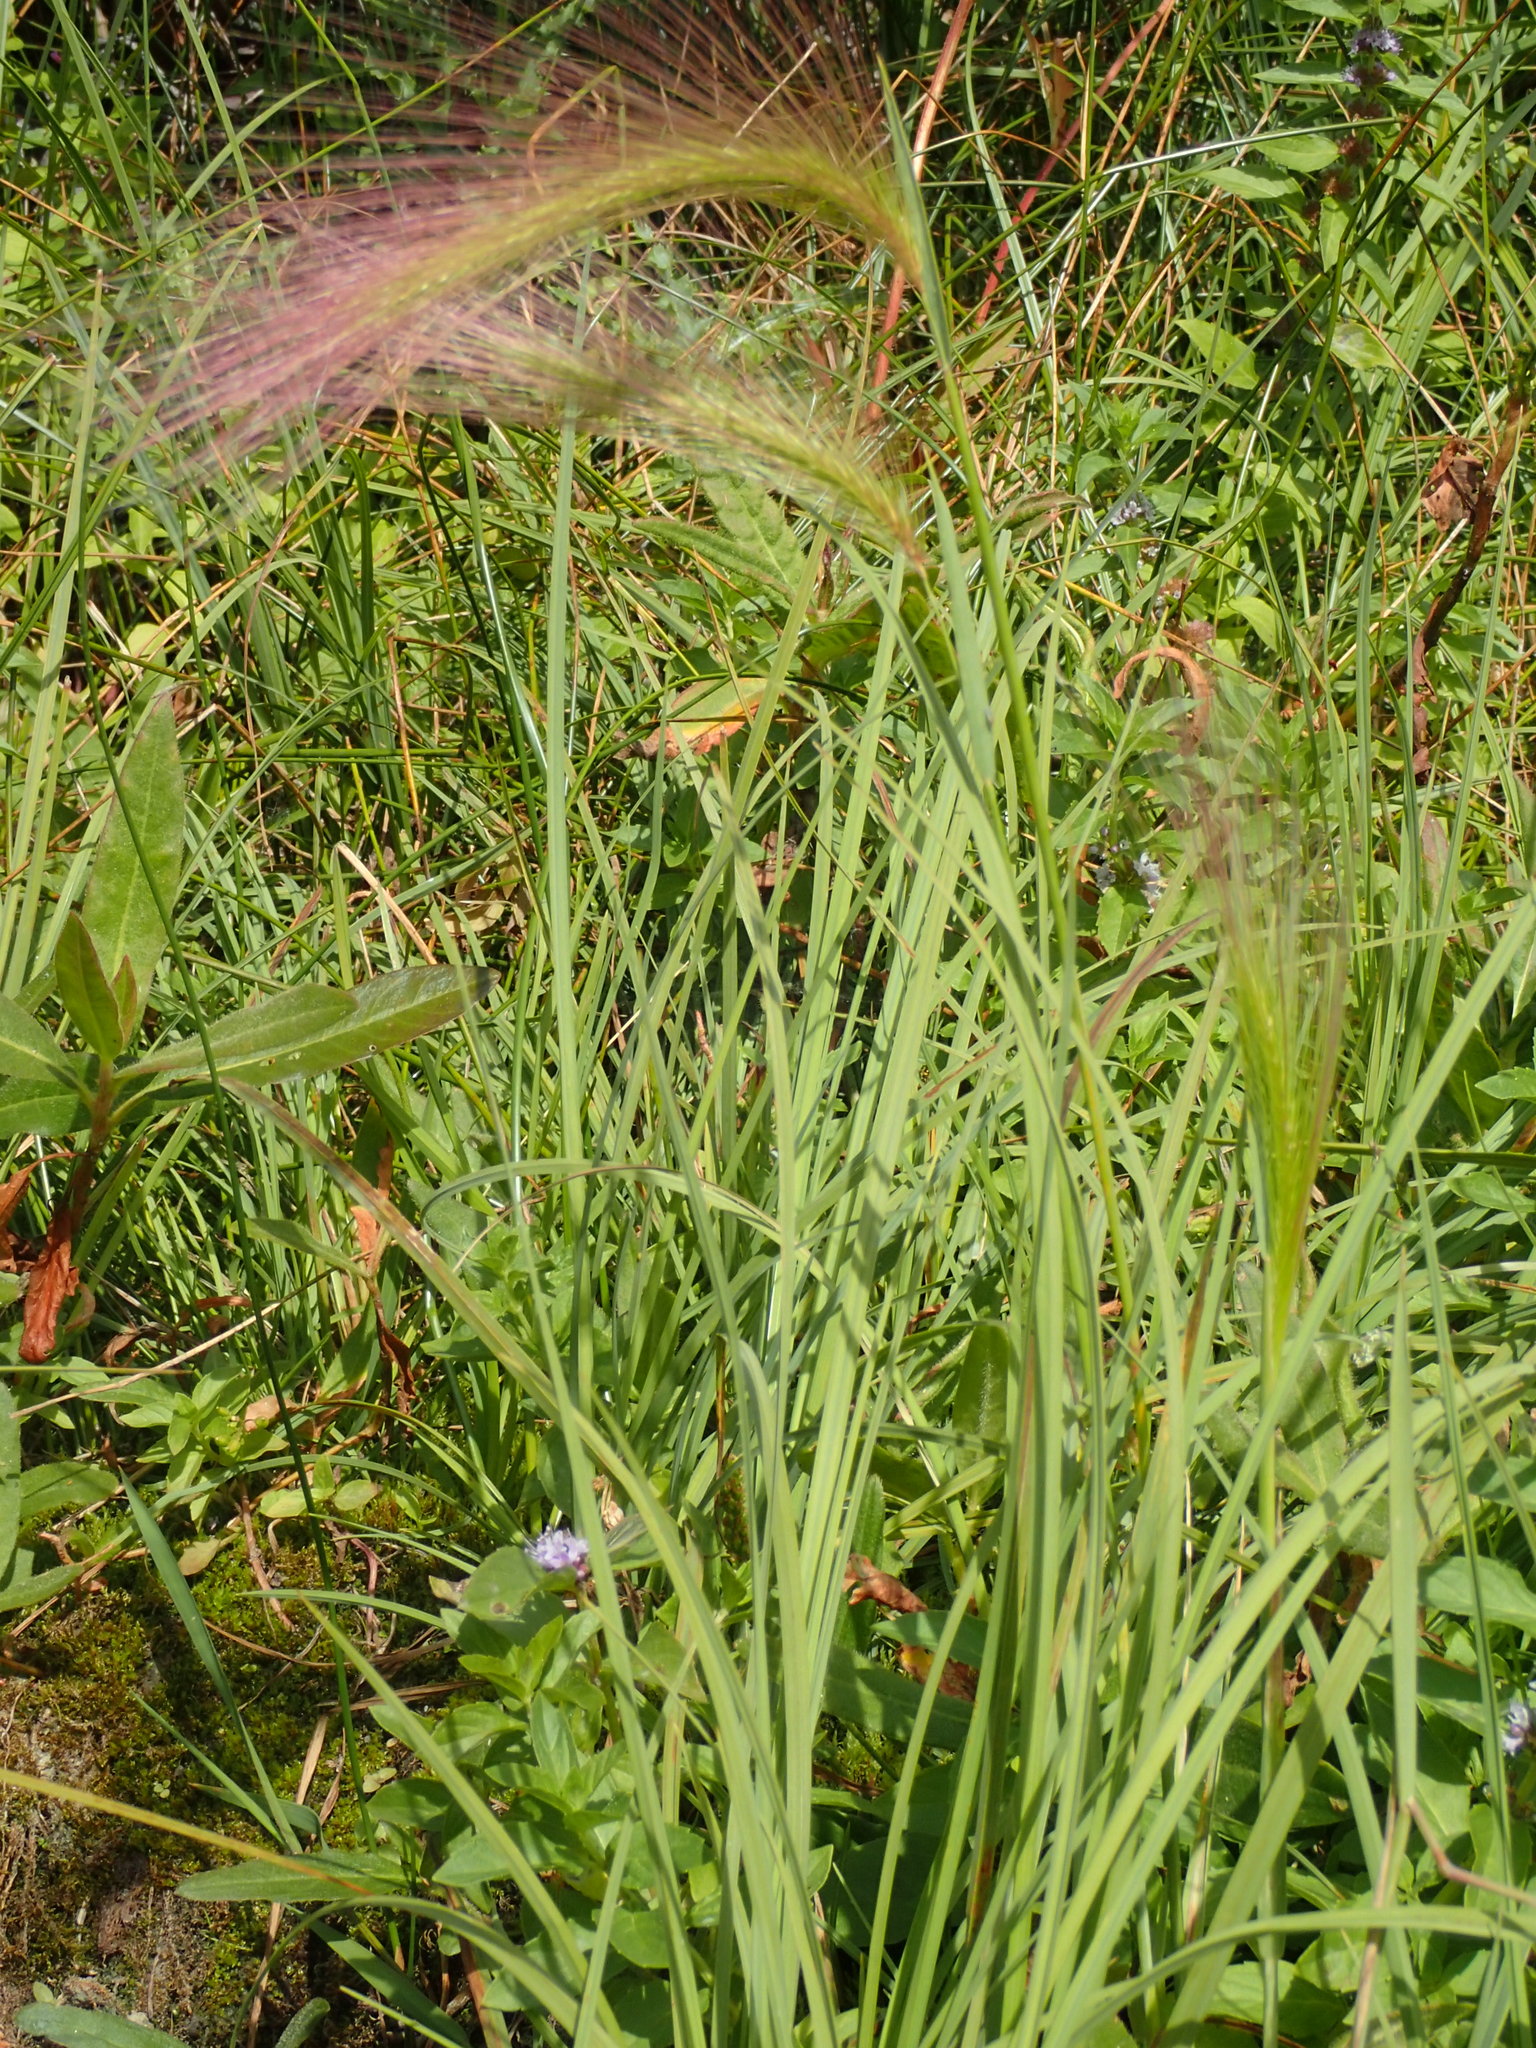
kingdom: Plantae
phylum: Tracheophyta
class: Liliopsida
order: Poales
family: Poaceae
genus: Hordeum
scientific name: Hordeum jubatum
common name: Foxtail barley
